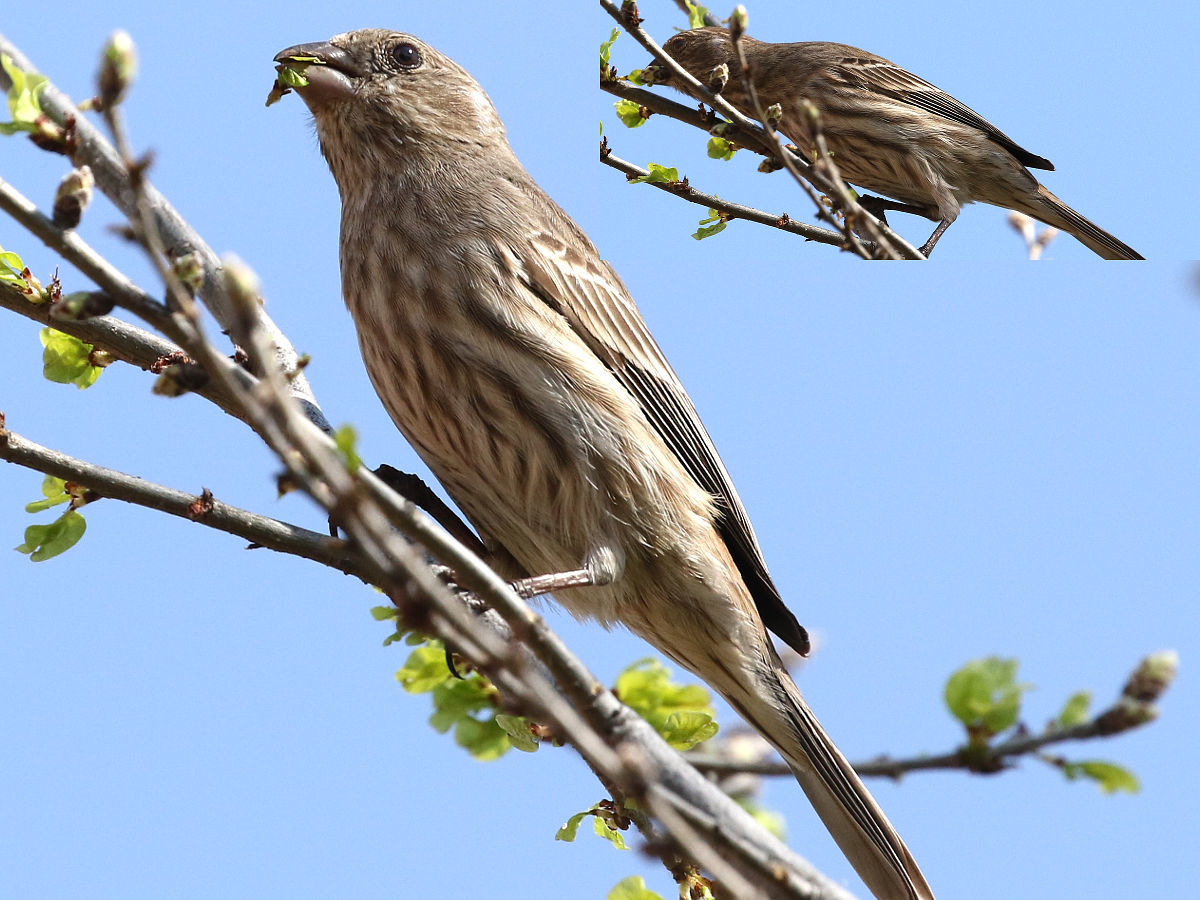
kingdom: Animalia
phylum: Chordata
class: Aves
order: Passeriformes
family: Fringillidae
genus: Haemorhous
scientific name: Haemorhous mexicanus
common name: House finch
